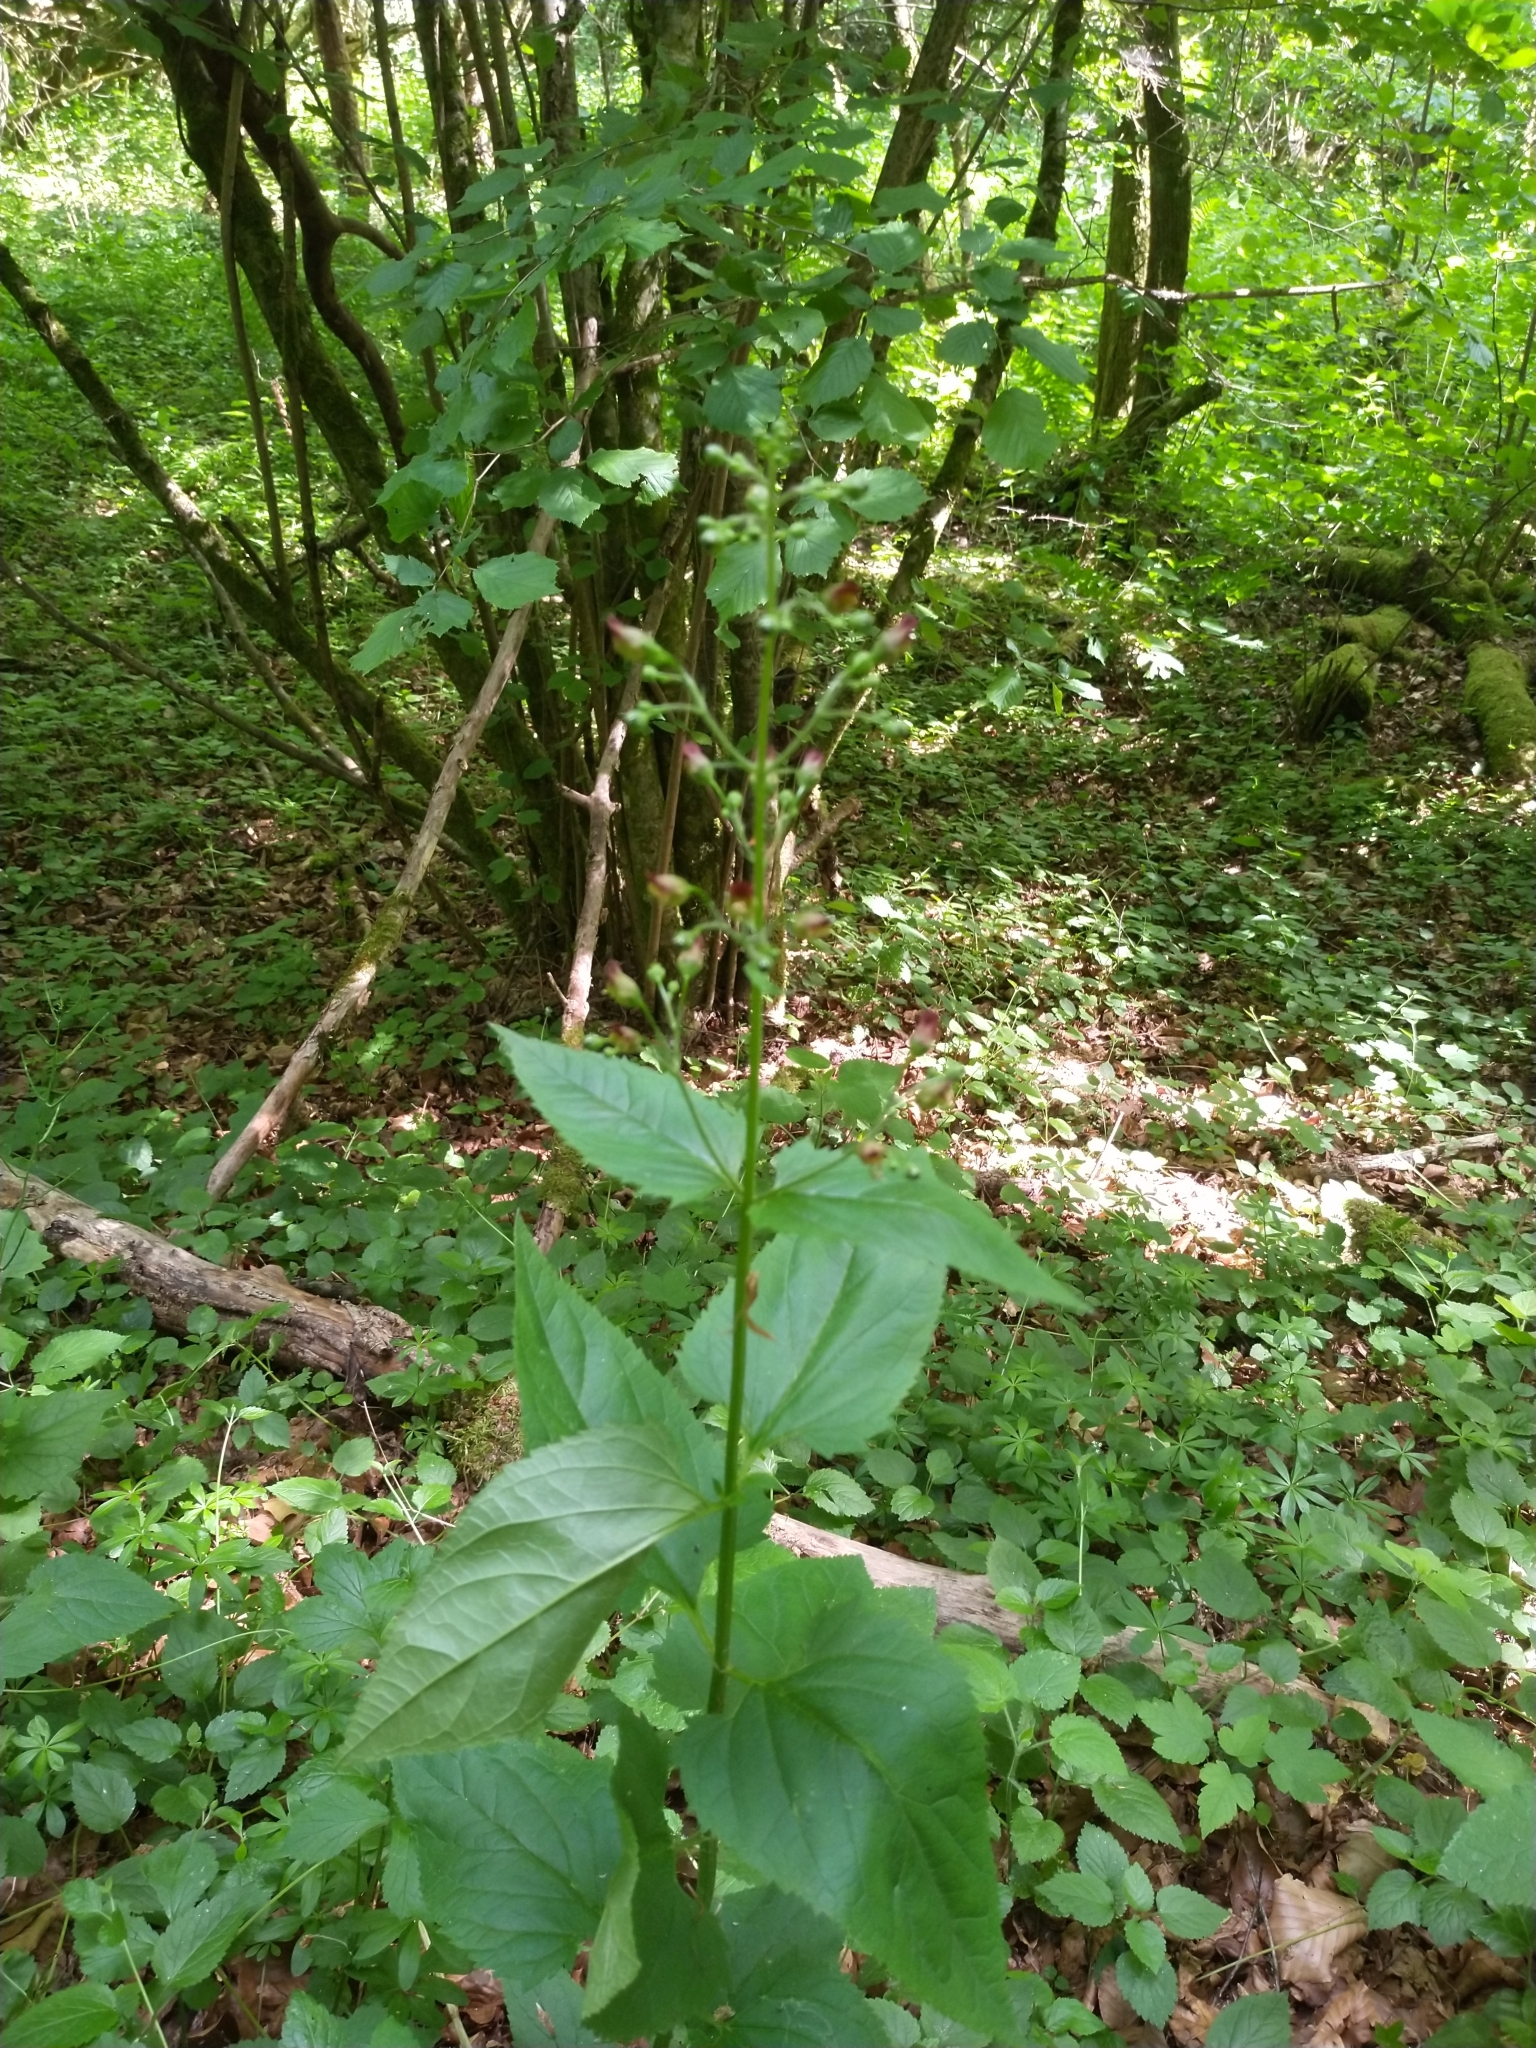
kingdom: Plantae
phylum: Tracheophyta
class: Magnoliopsida
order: Lamiales
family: Scrophulariaceae
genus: Scrophularia
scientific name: Scrophularia nodosa
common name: Common figwort
